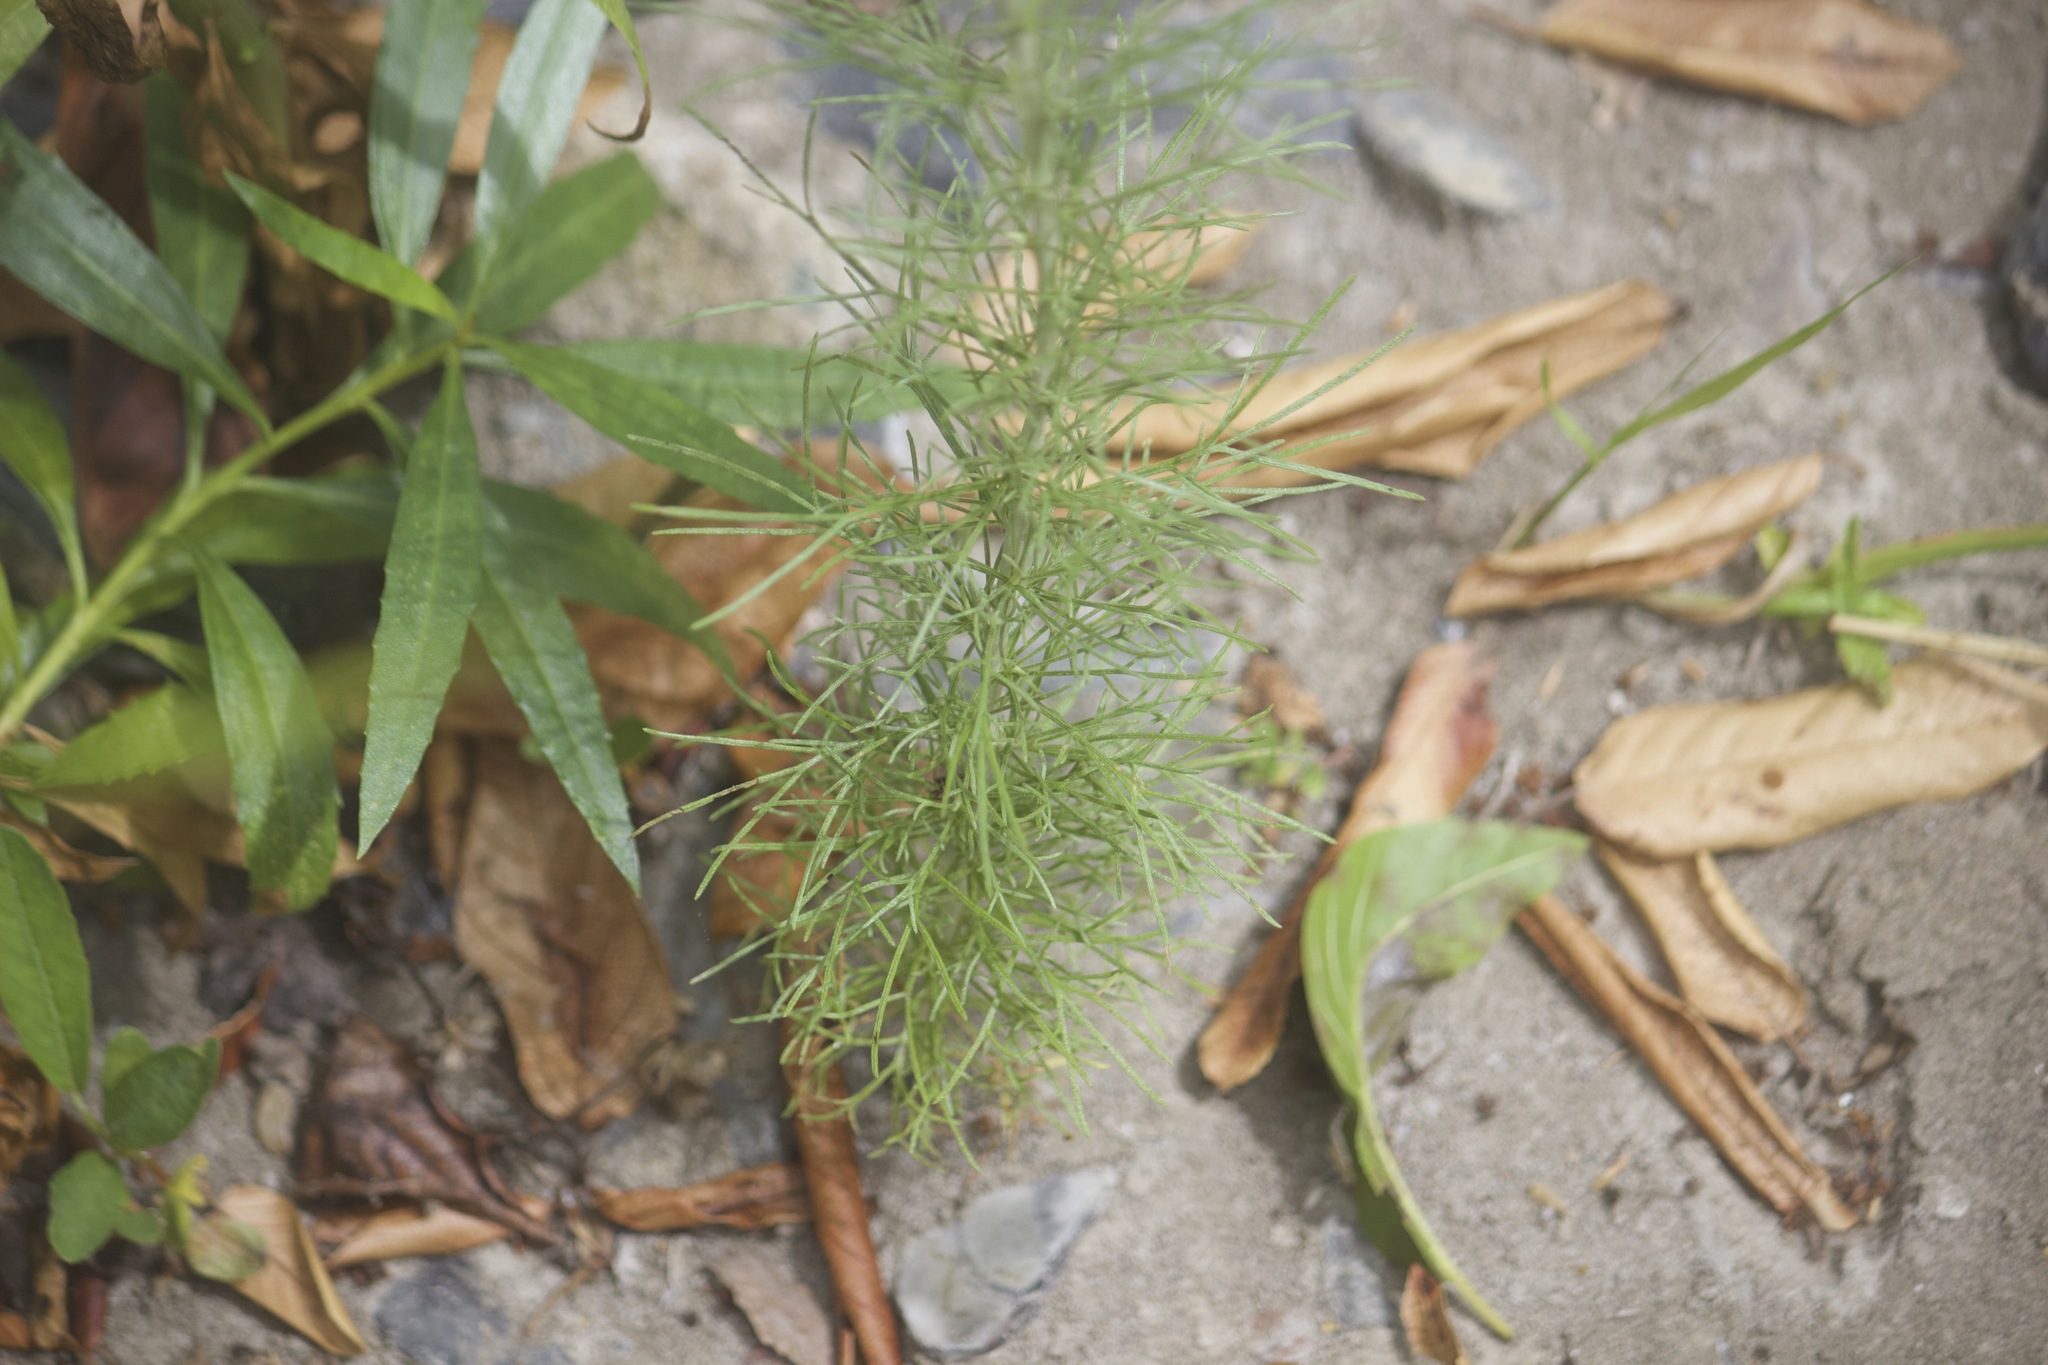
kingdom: Plantae
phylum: Tracheophyta
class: Magnoliopsida
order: Asterales
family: Asteraceae
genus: Artemisia
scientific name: Artemisia californica
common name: California sagebrush
